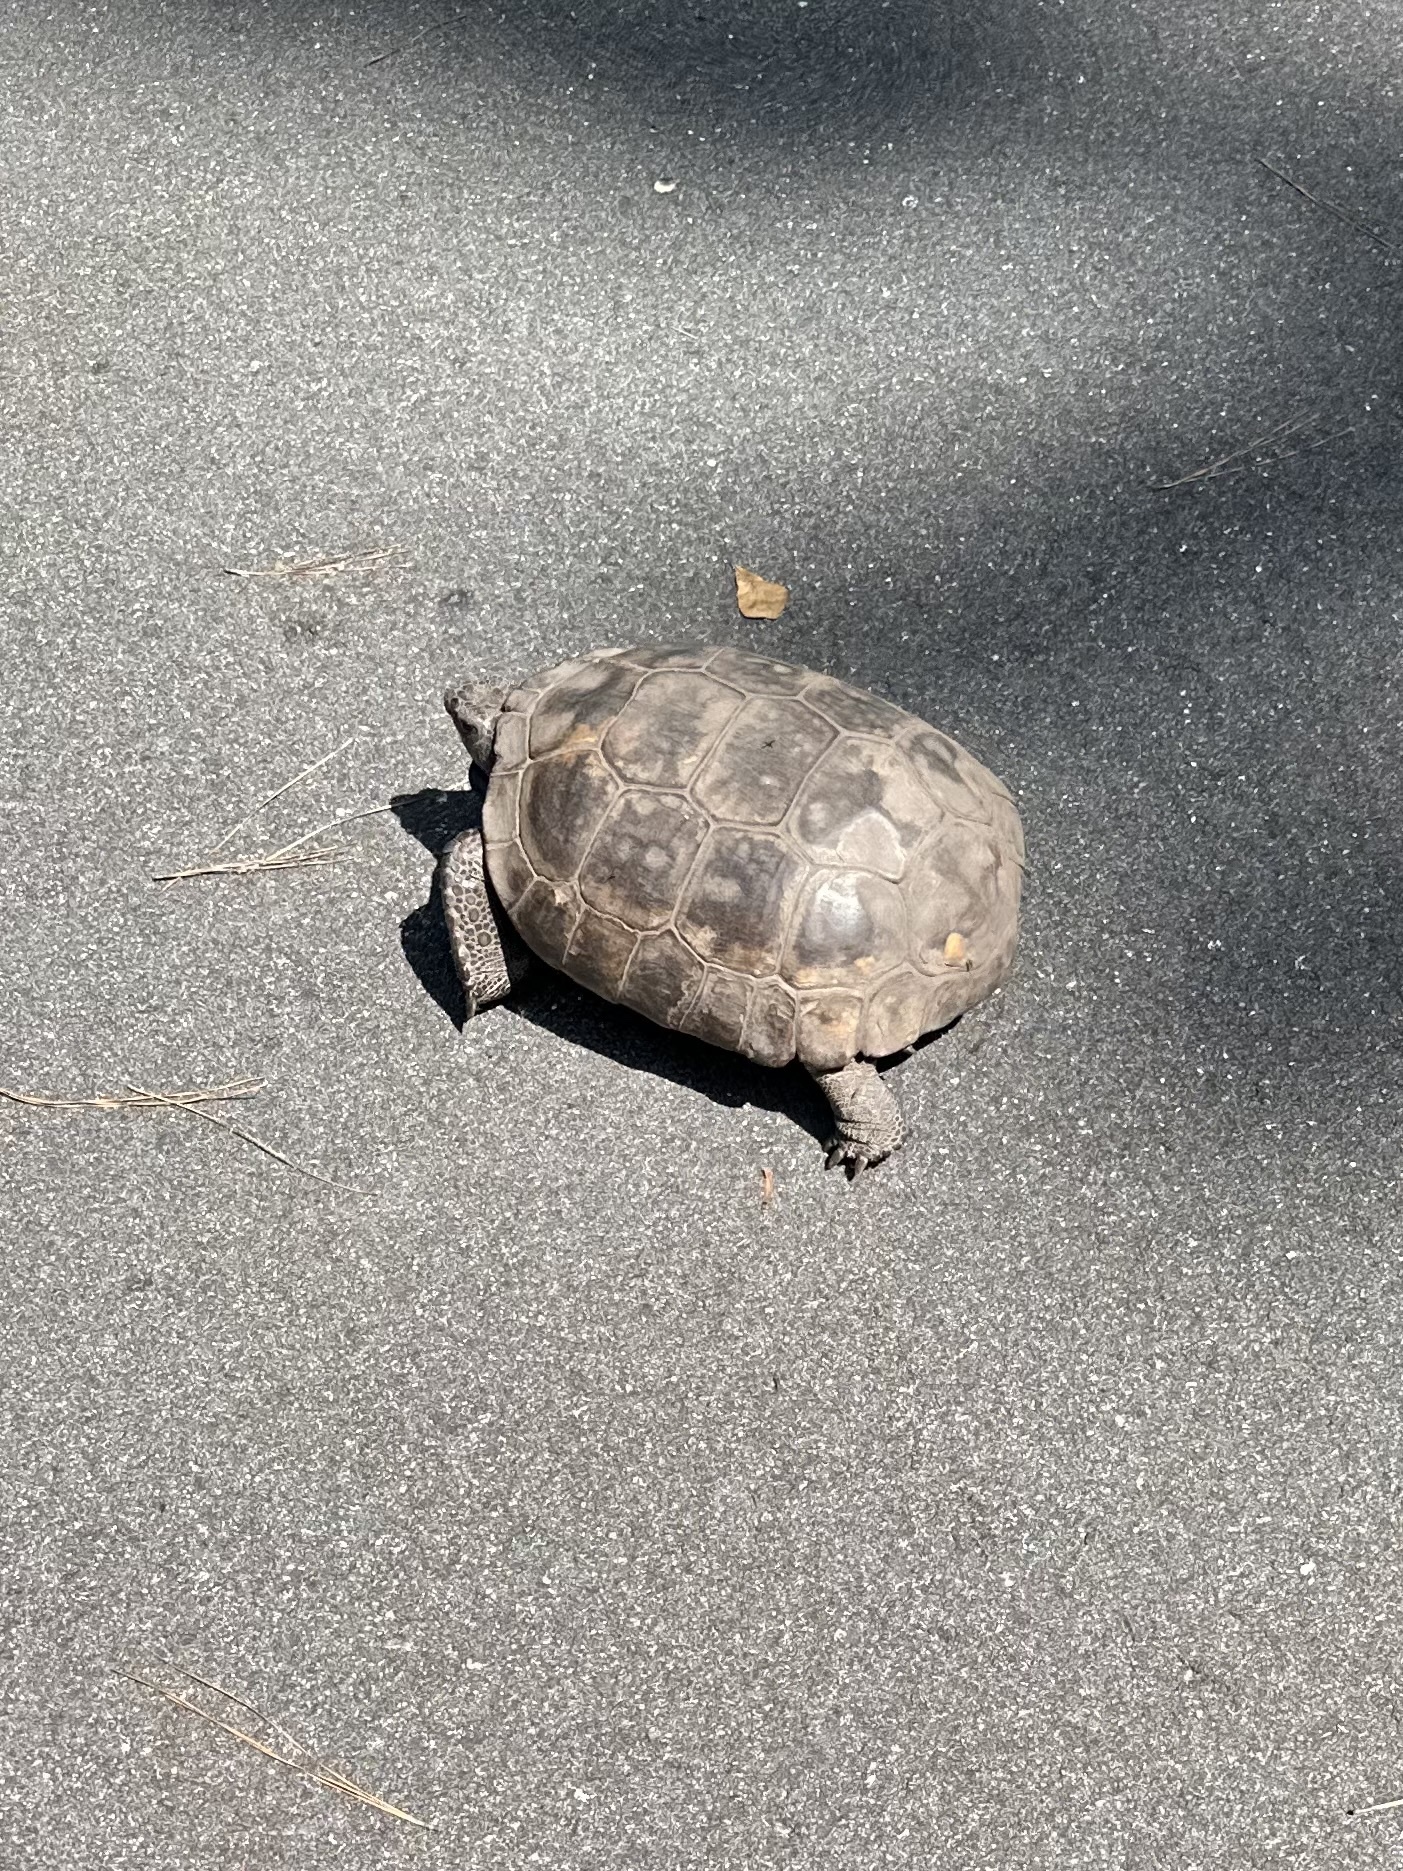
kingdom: Animalia
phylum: Chordata
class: Testudines
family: Testudinidae
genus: Gopherus
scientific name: Gopherus polyphemus
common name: Florida gopher tortoise
